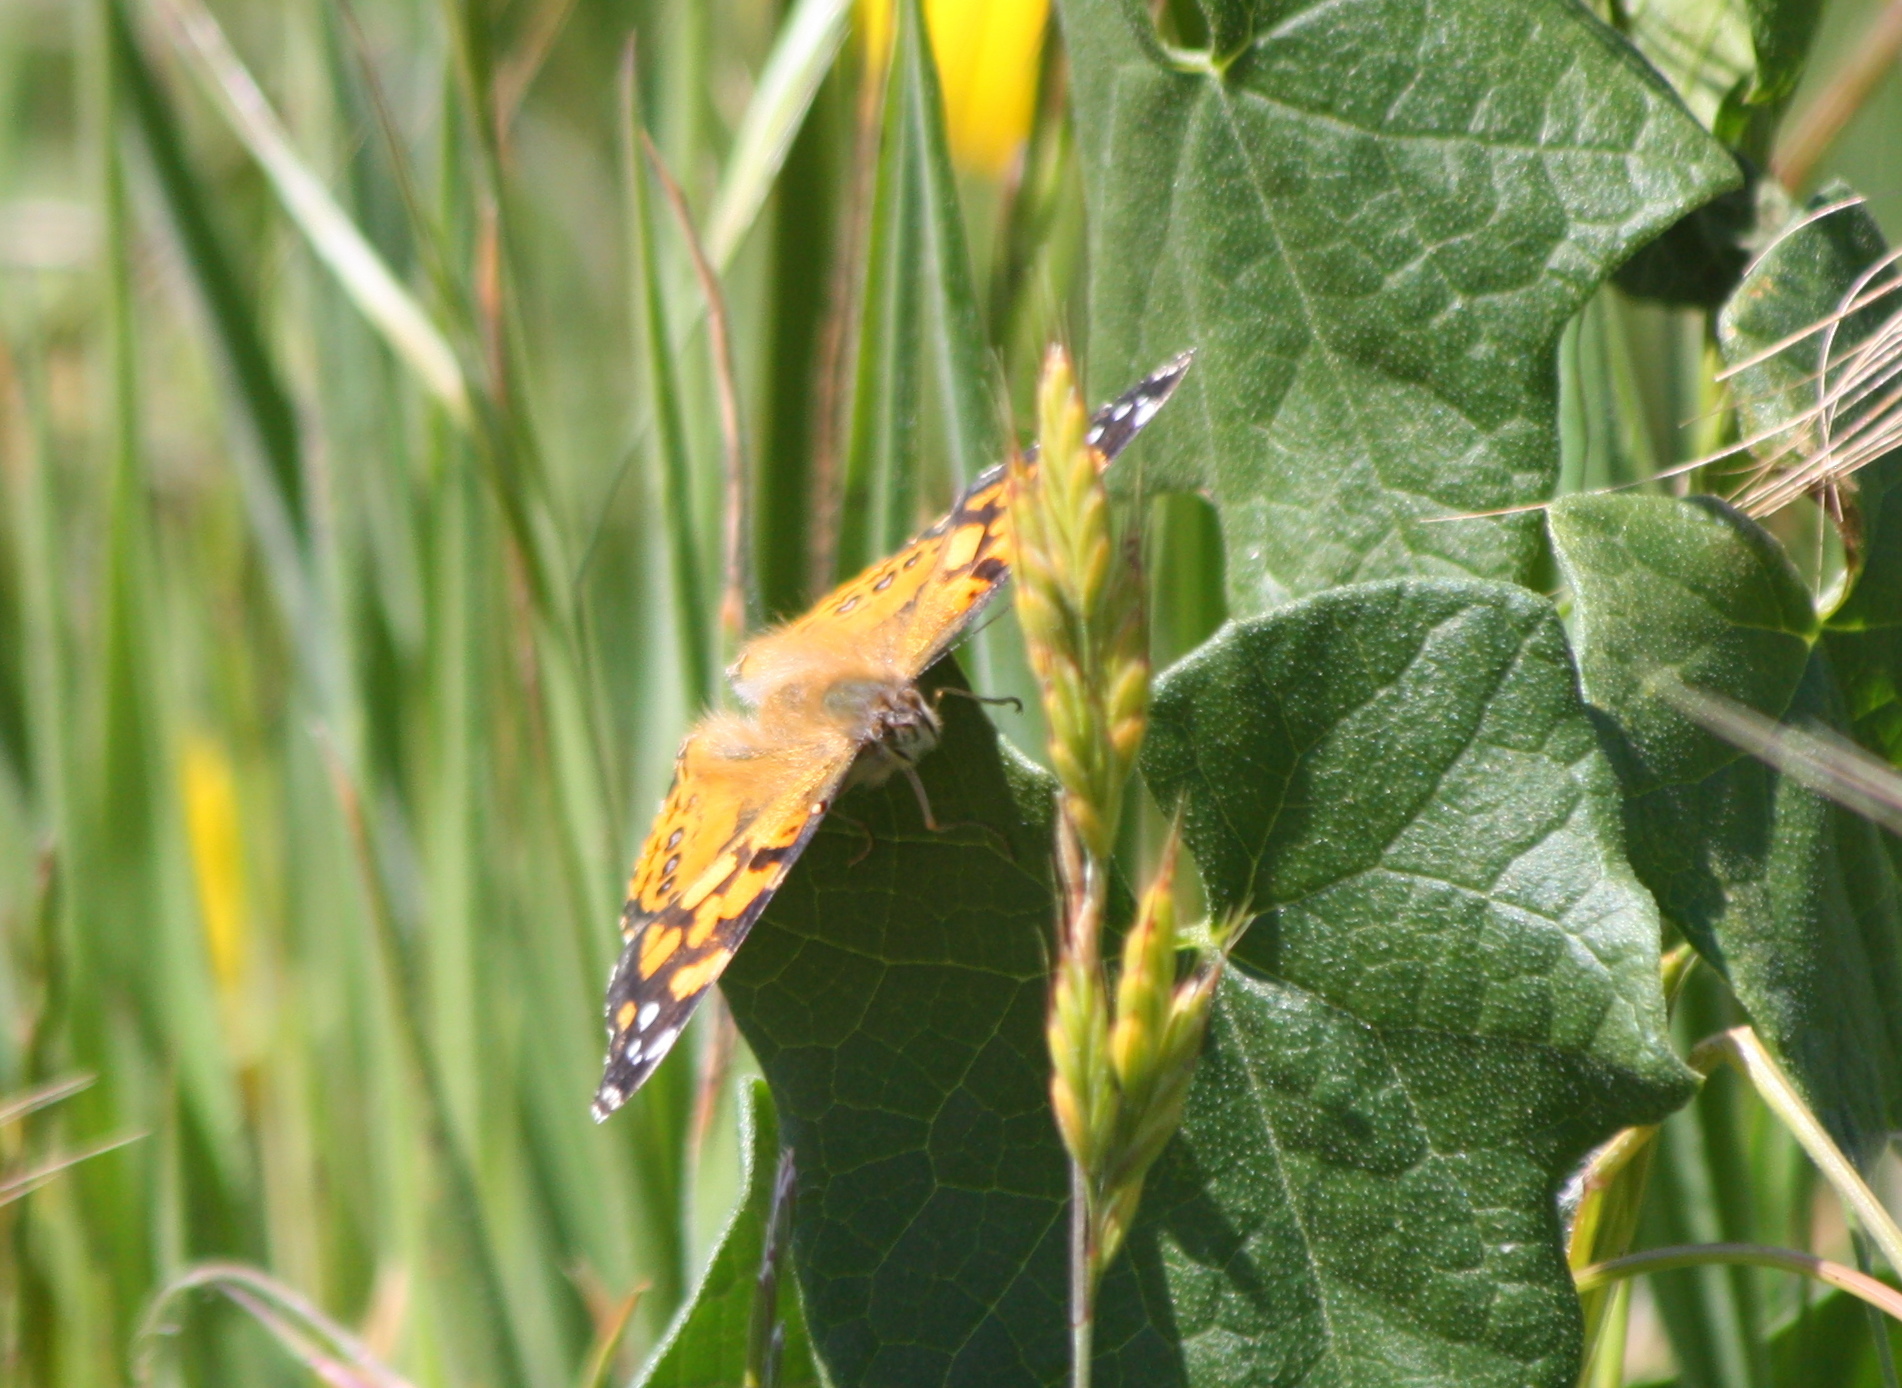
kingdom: Animalia
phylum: Arthropoda
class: Insecta
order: Lepidoptera
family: Nymphalidae
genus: Vanessa
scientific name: Vanessa annabella
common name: West coast lady
